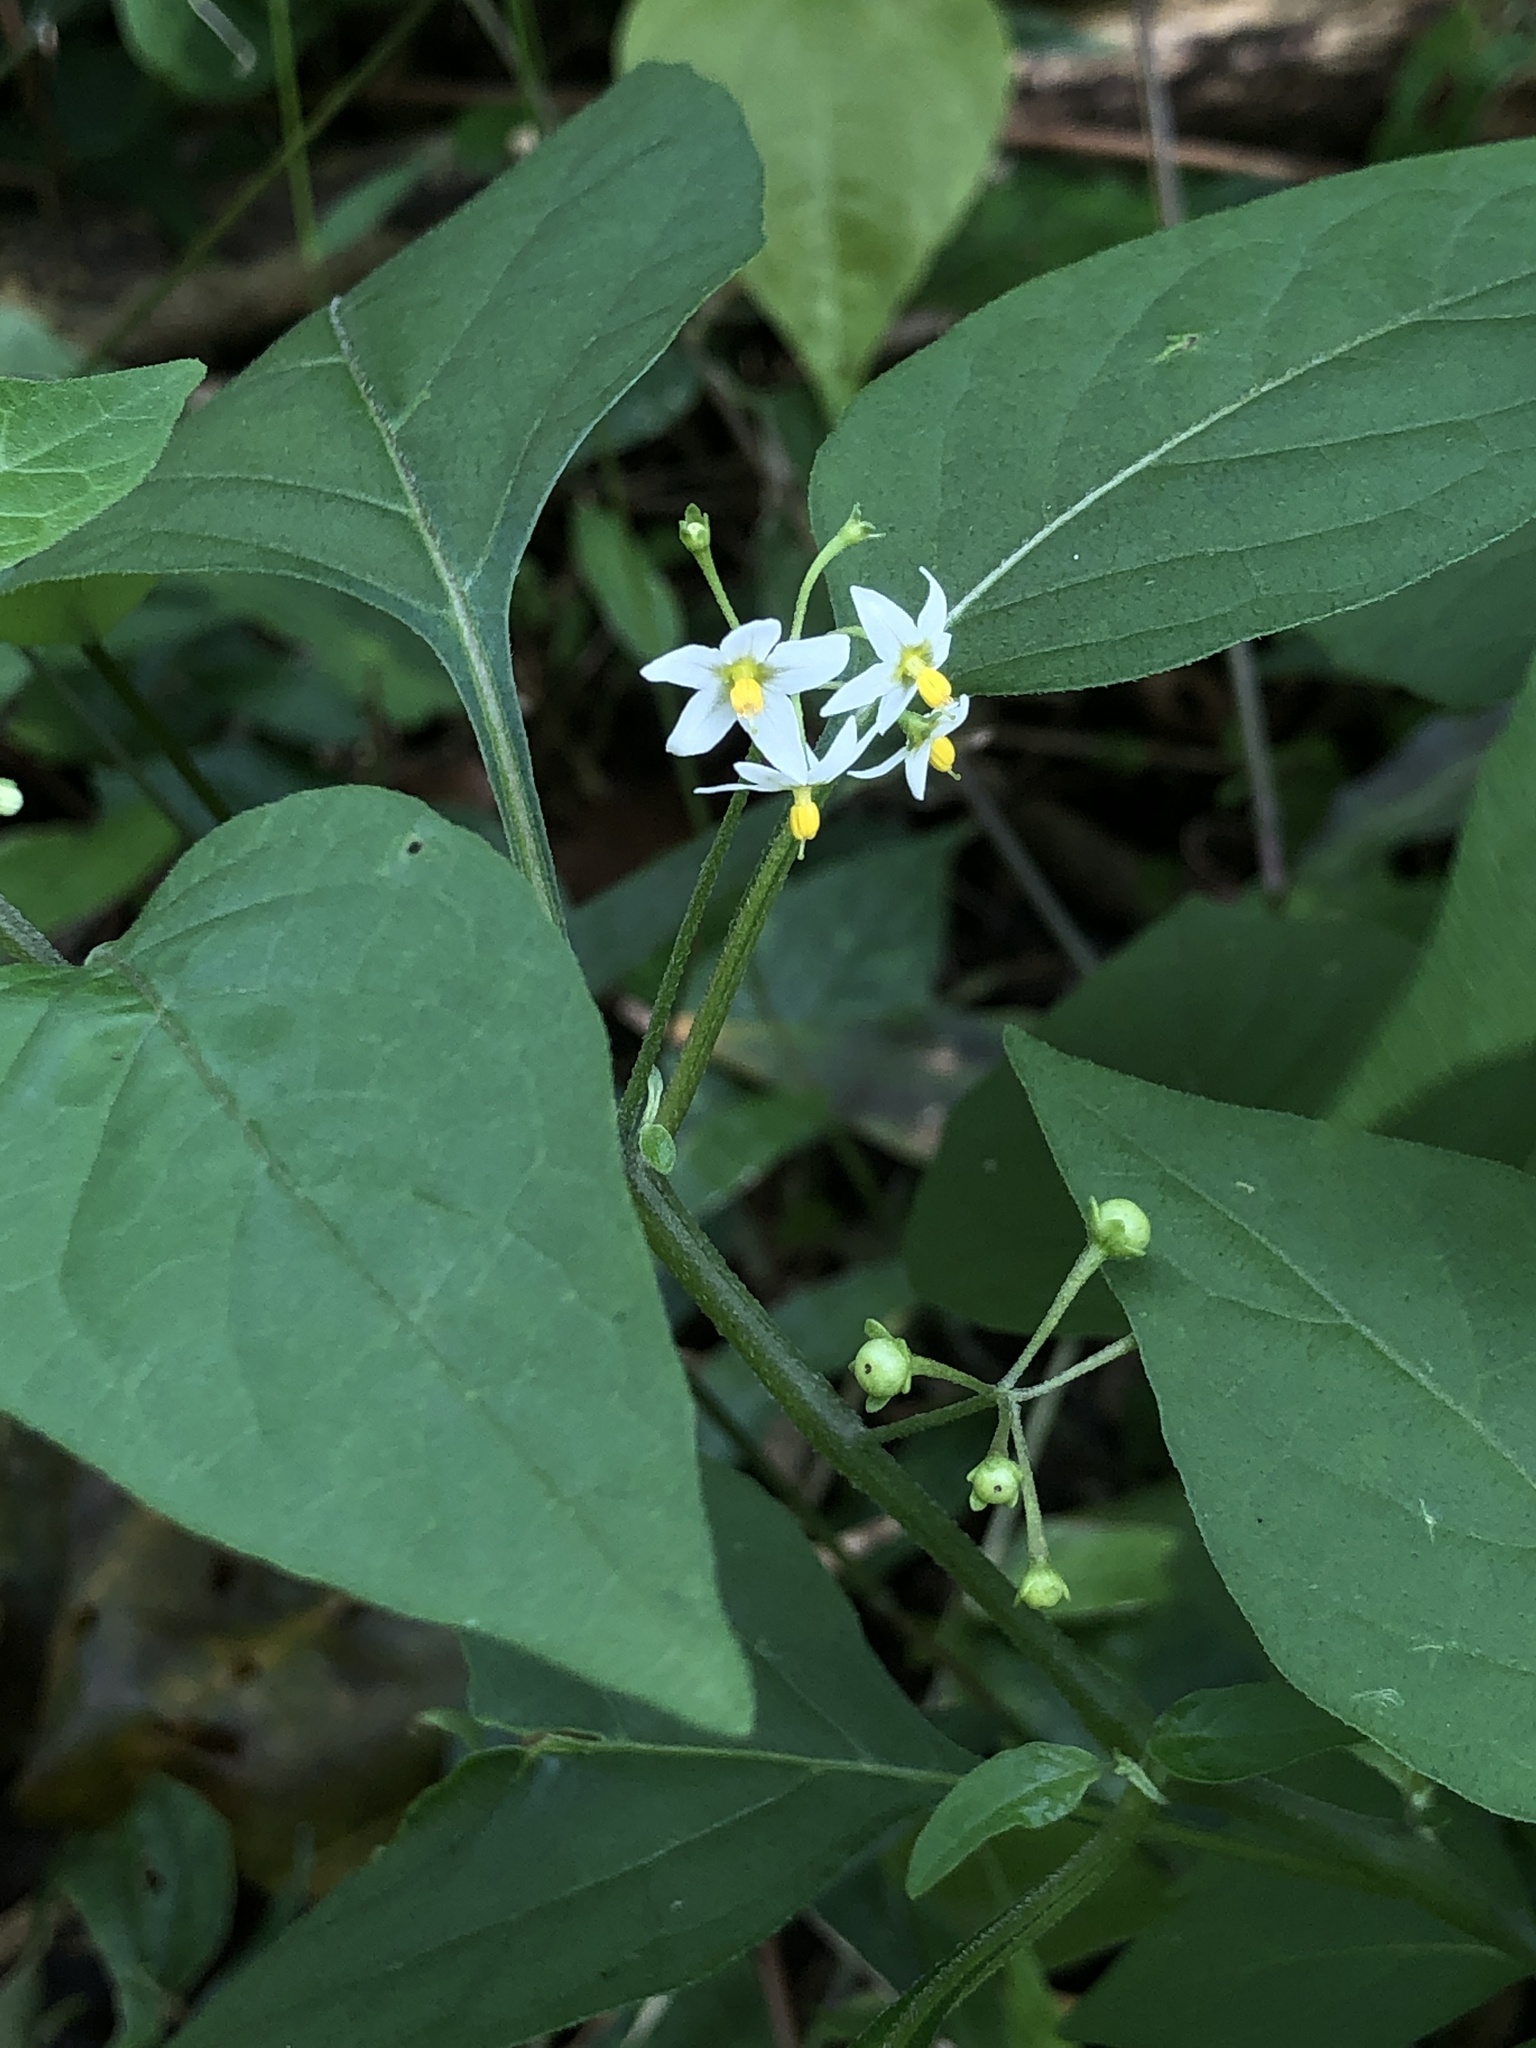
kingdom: Plantae
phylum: Tracheophyta
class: Magnoliopsida
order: Solanales
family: Solanaceae
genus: Solanum
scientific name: Solanum americanum
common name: American black nightshade
